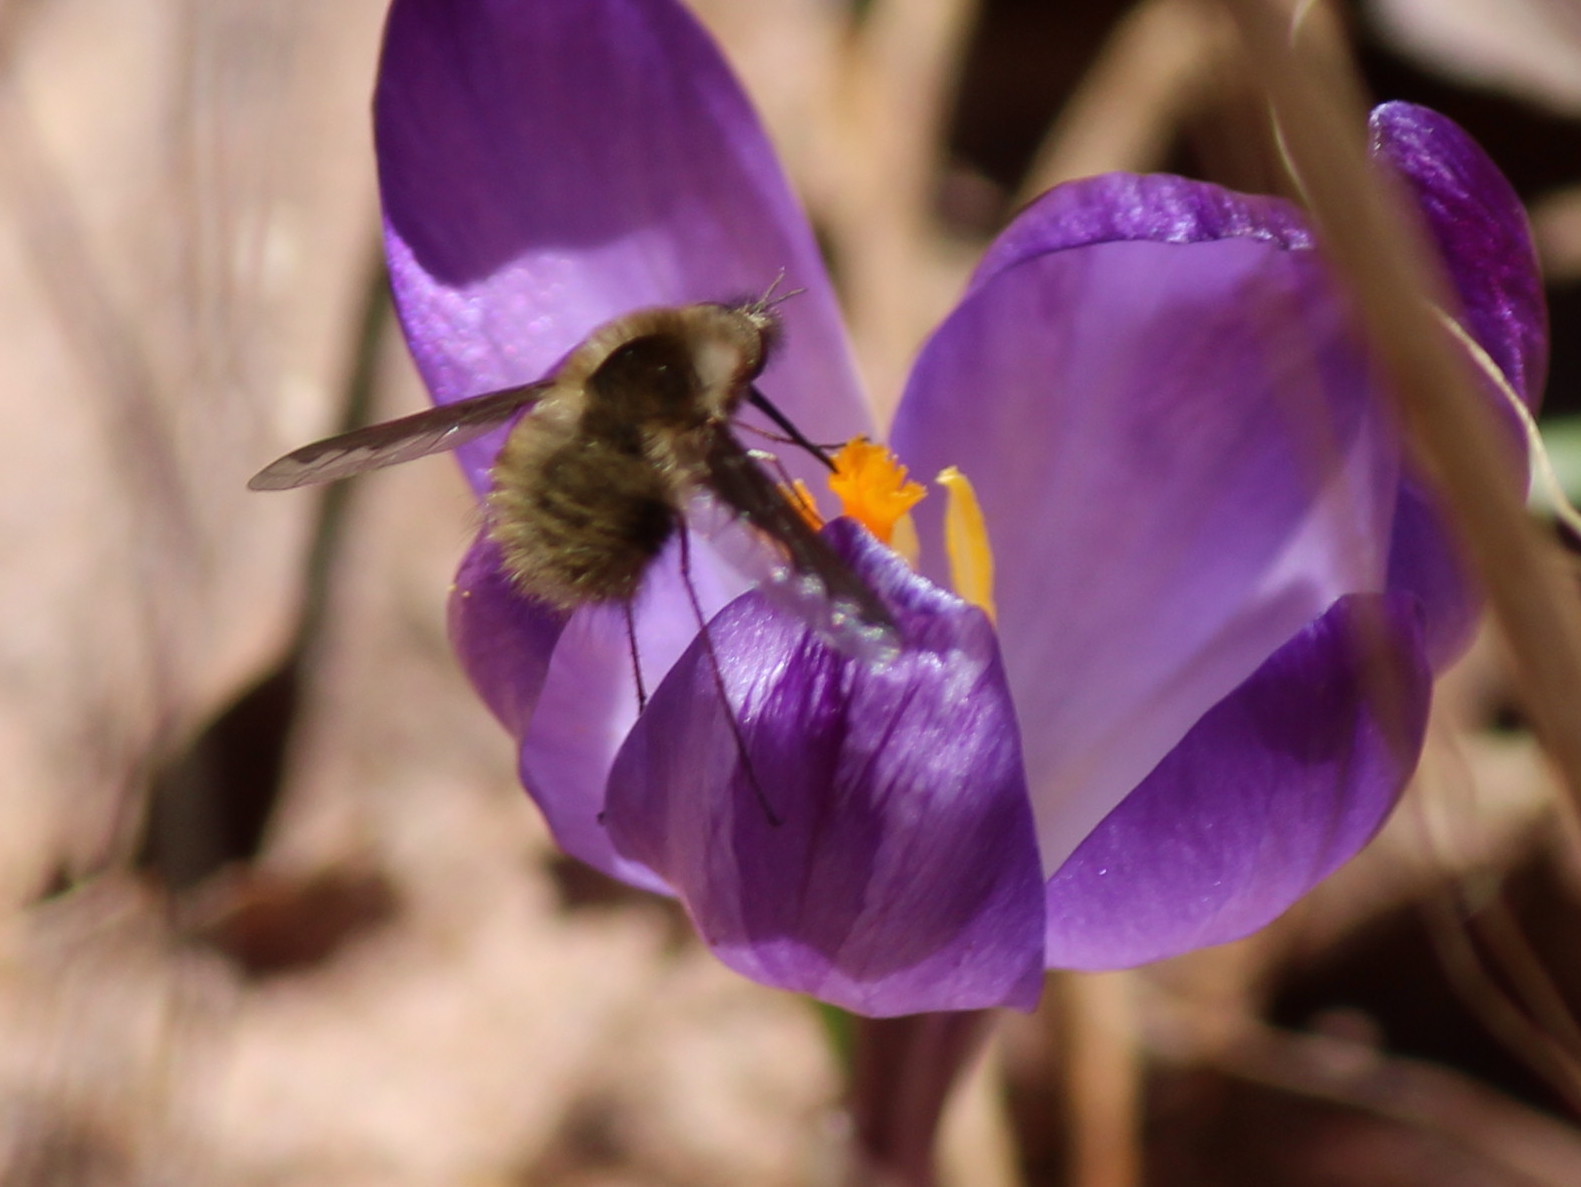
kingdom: Animalia
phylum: Arthropoda
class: Insecta
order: Diptera
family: Bombyliidae
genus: Bombylius
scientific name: Bombylius major
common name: Bee fly
